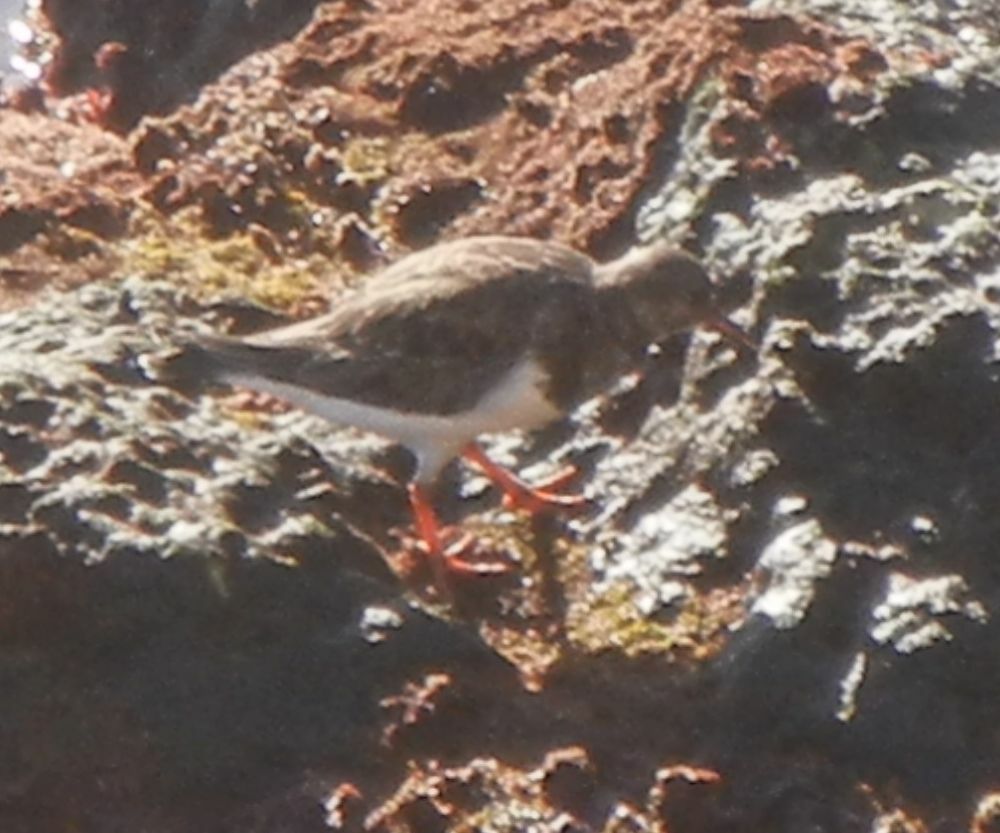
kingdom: Animalia
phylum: Chordata
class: Aves
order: Charadriiformes
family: Scolopacidae
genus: Arenaria
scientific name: Arenaria interpres
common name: Ruddy turnstone
